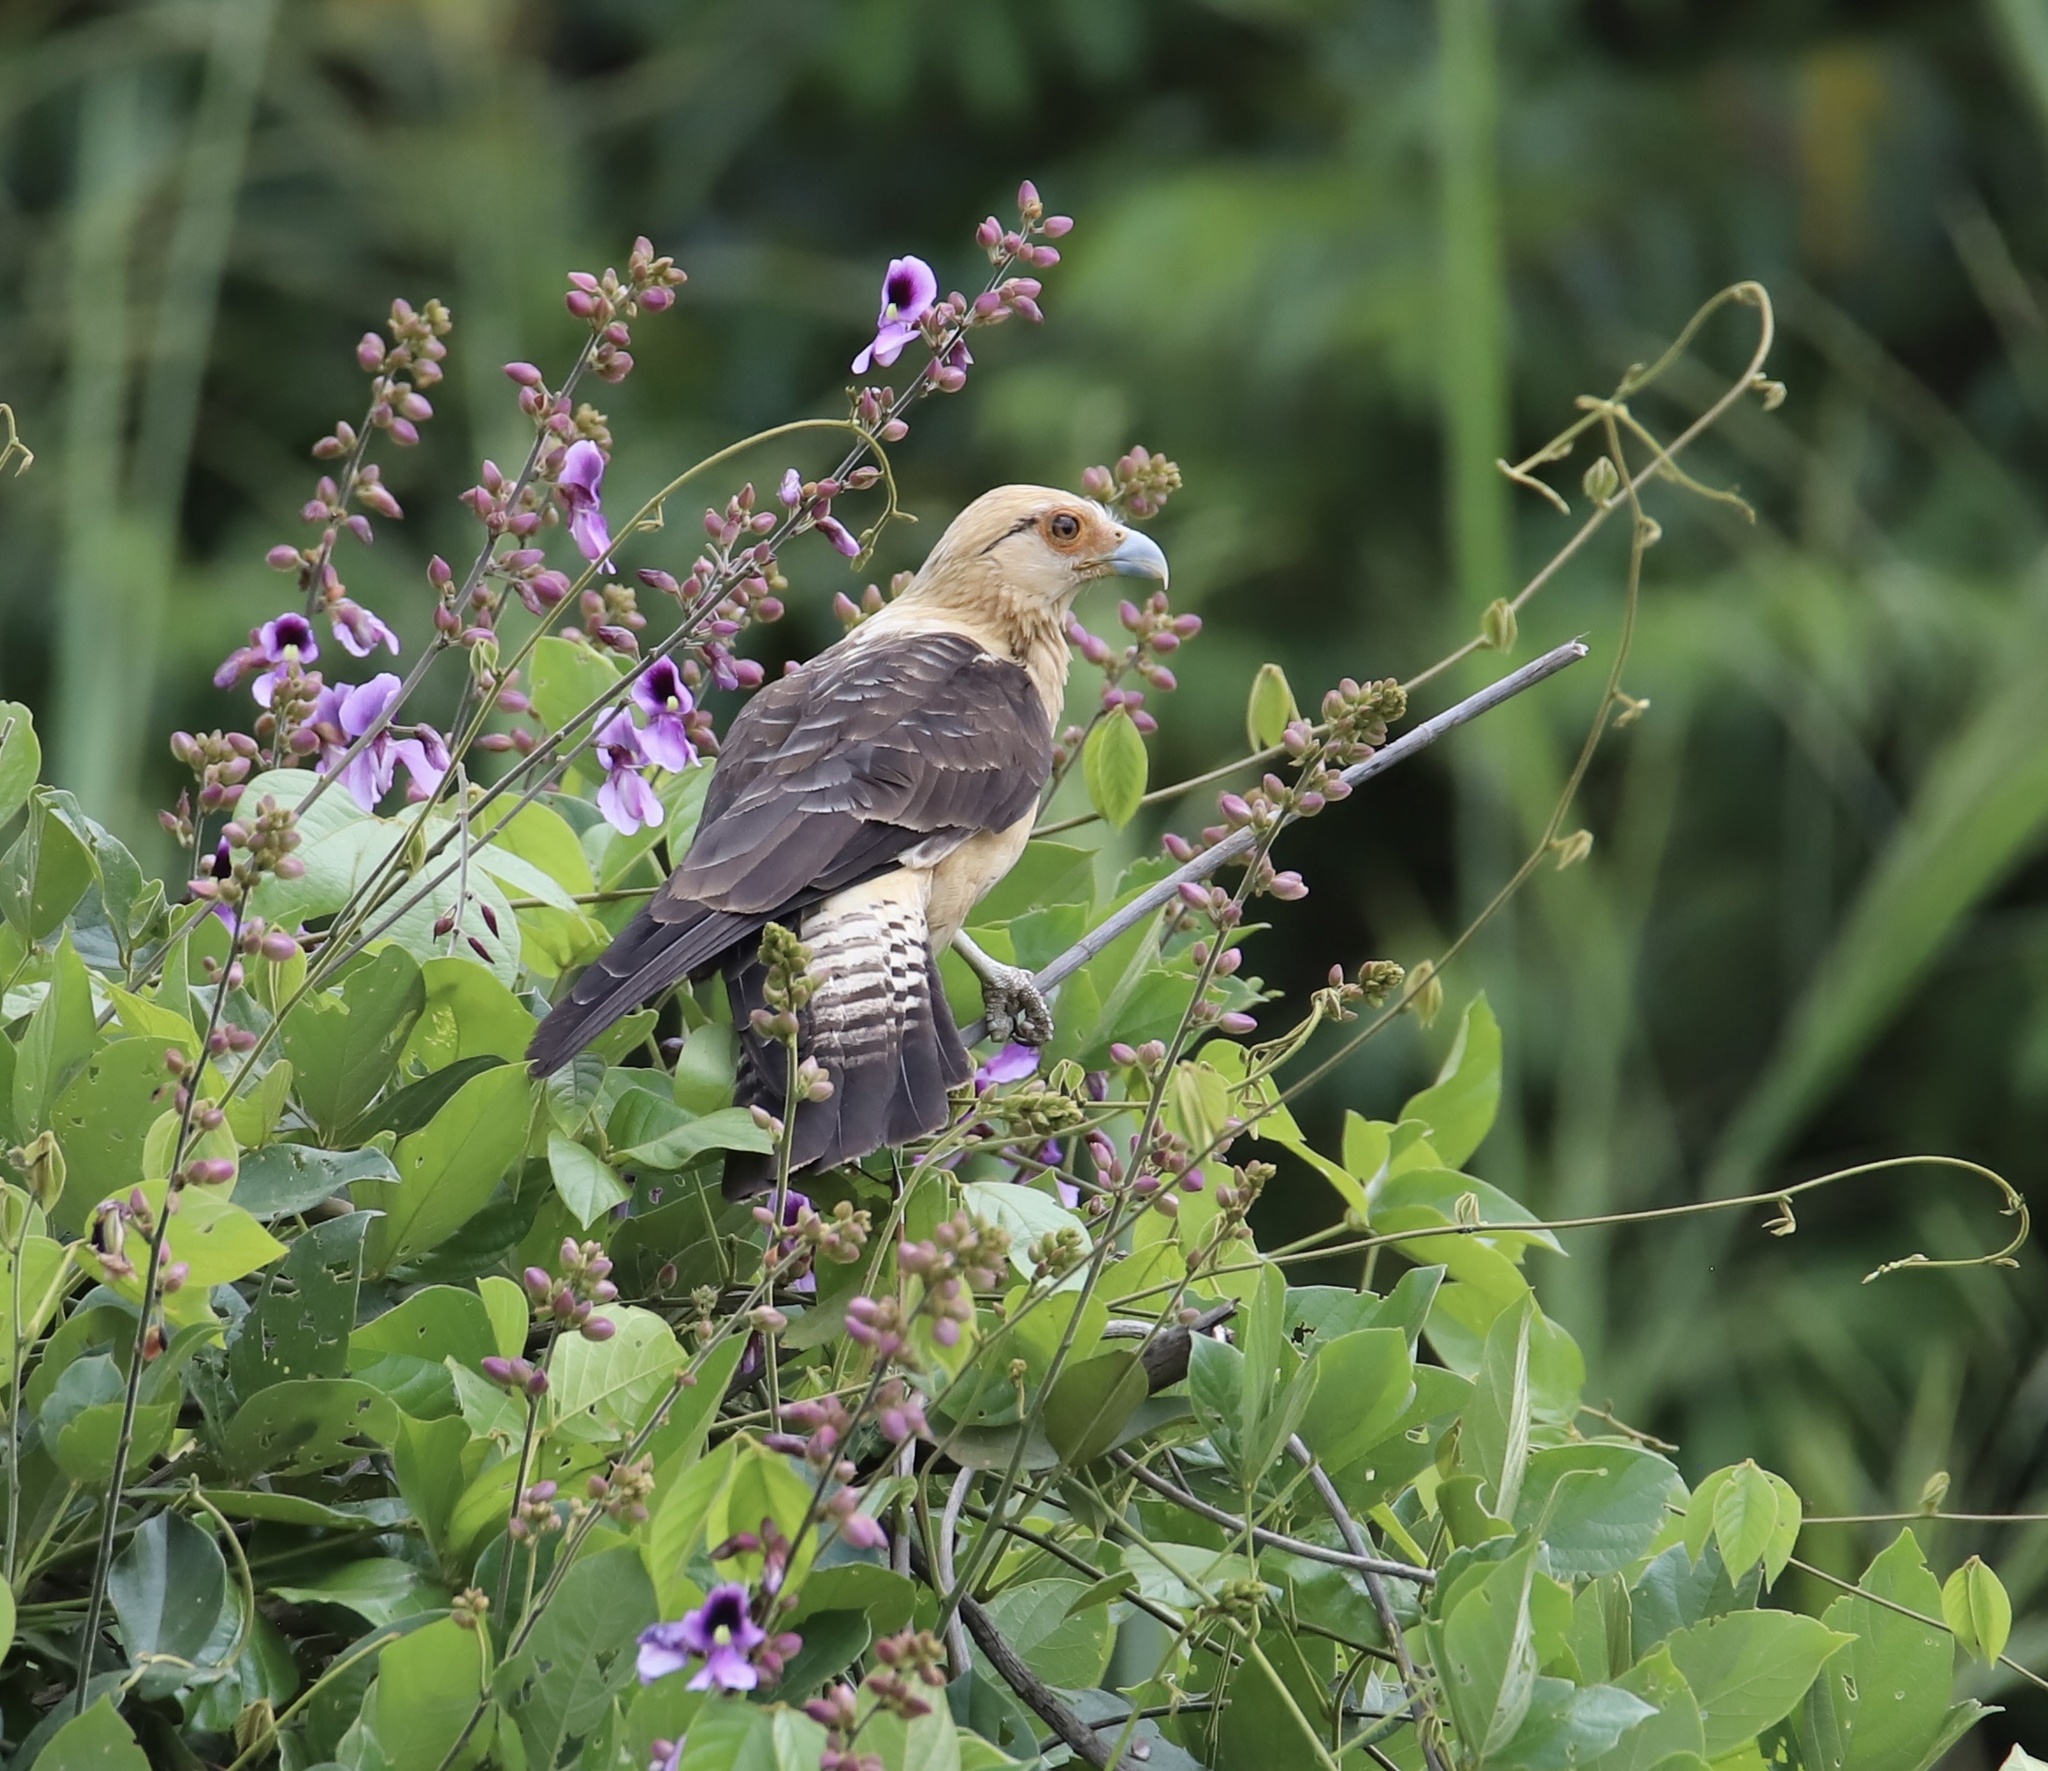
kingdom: Animalia
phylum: Chordata
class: Aves
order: Falconiformes
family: Falconidae
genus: Daptrius
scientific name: Daptrius
